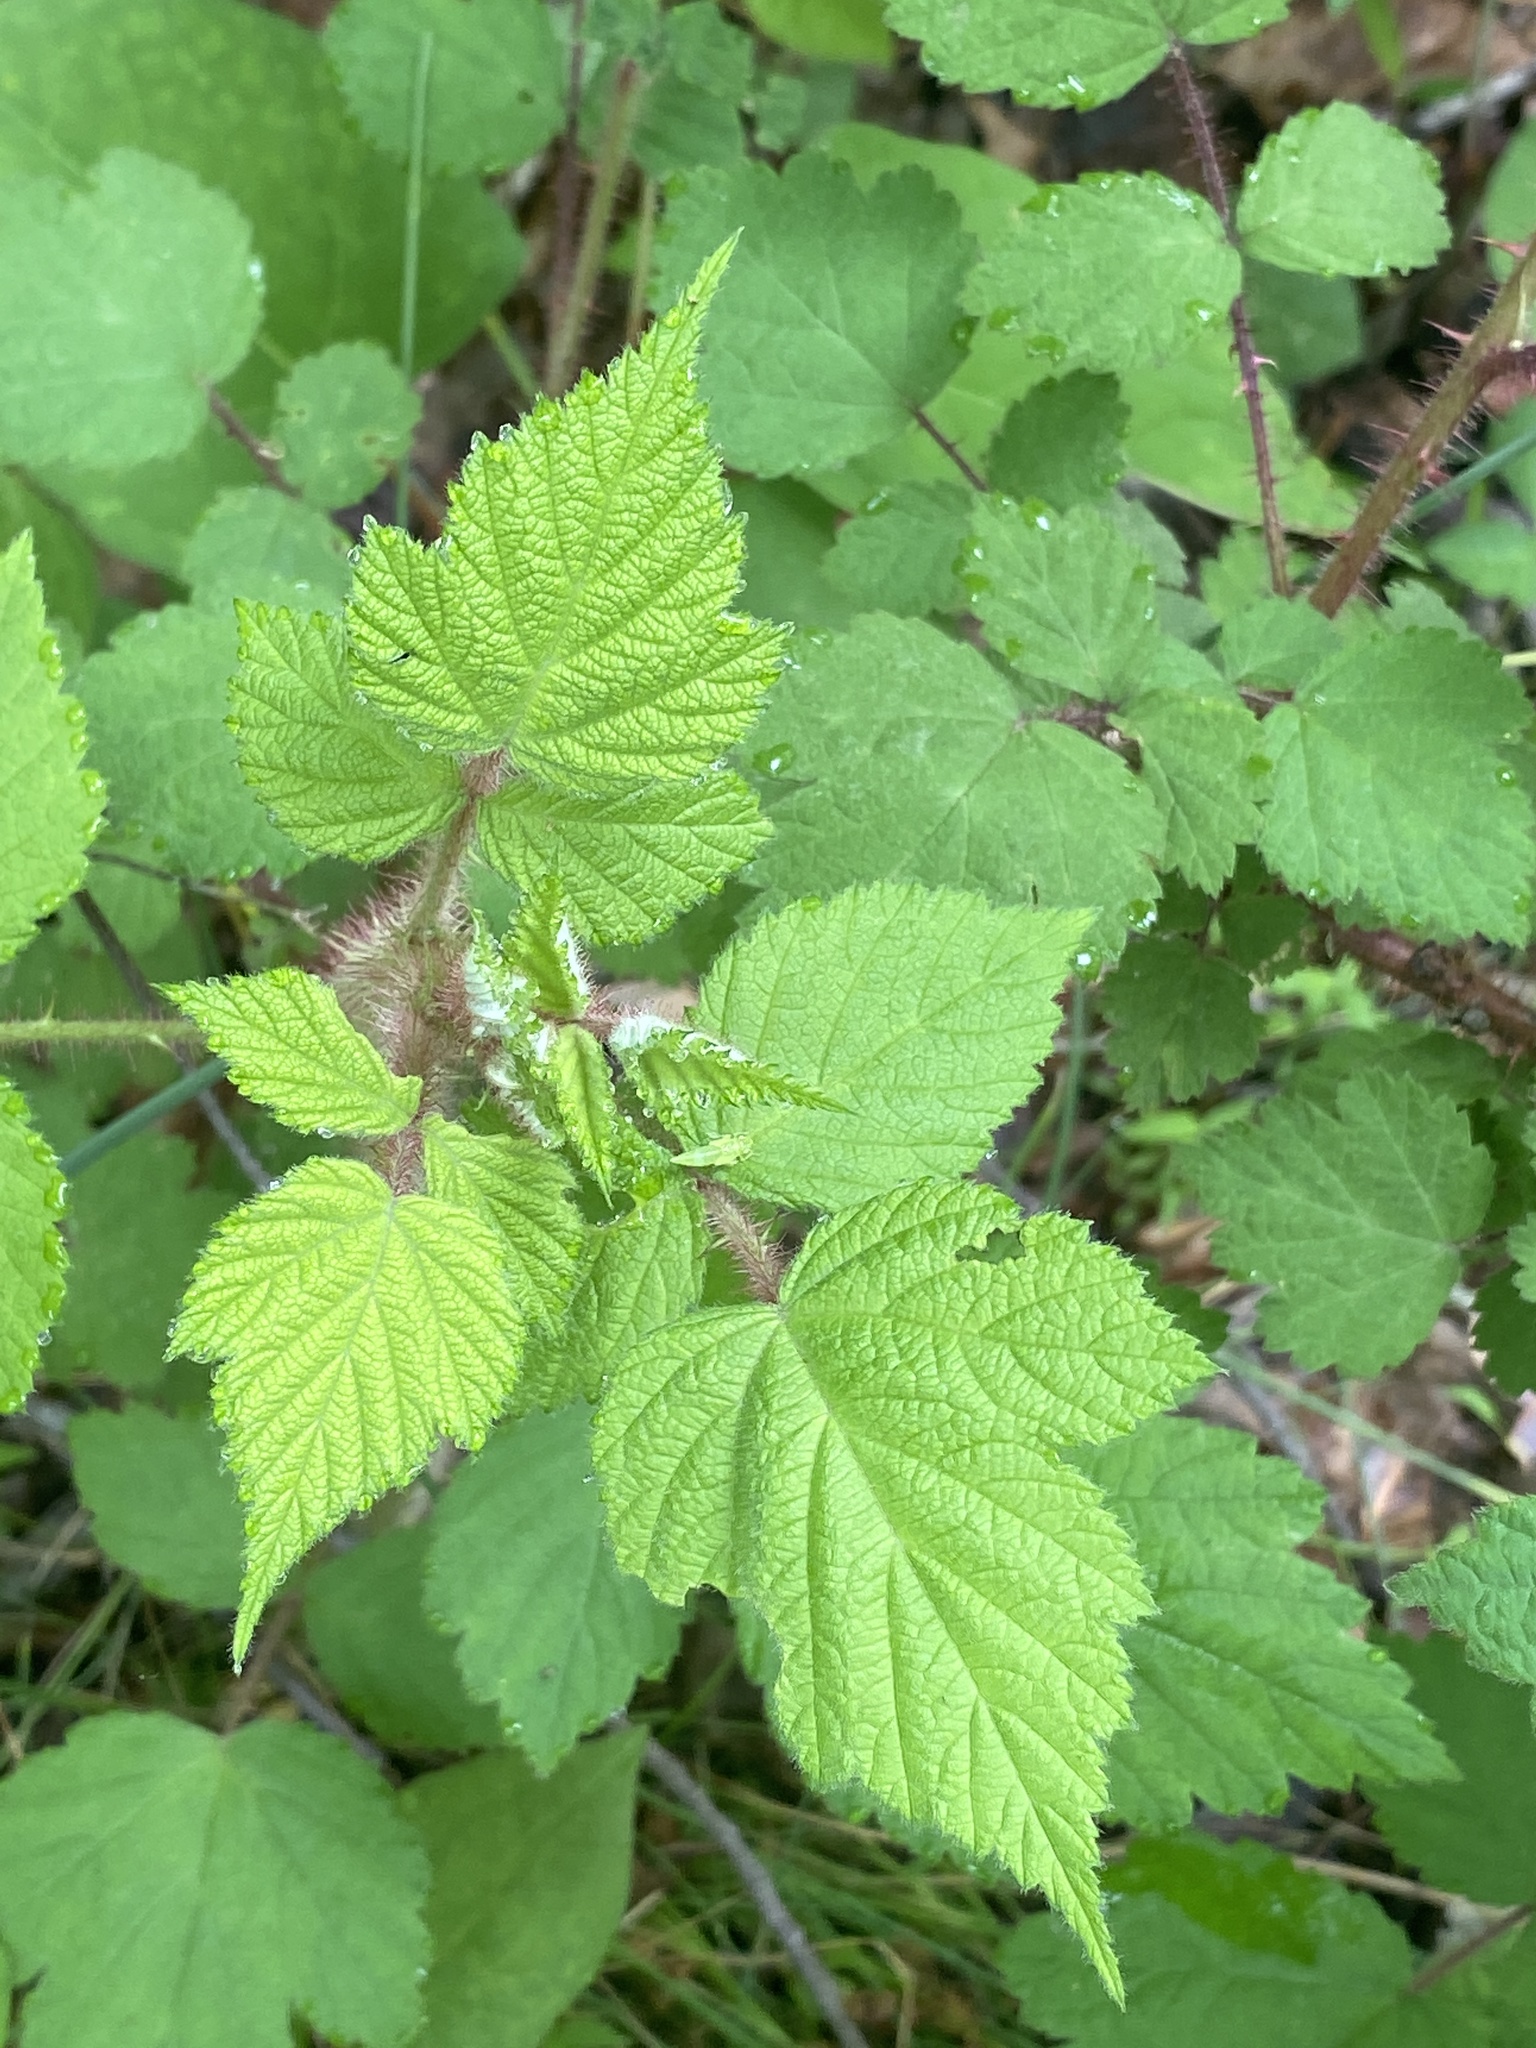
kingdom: Plantae
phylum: Tracheophyta
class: Magnoliopsida
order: Rosales
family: Rosaceae
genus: Rubus
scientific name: Rubus phoenicolasius
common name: Japanese wineberry
